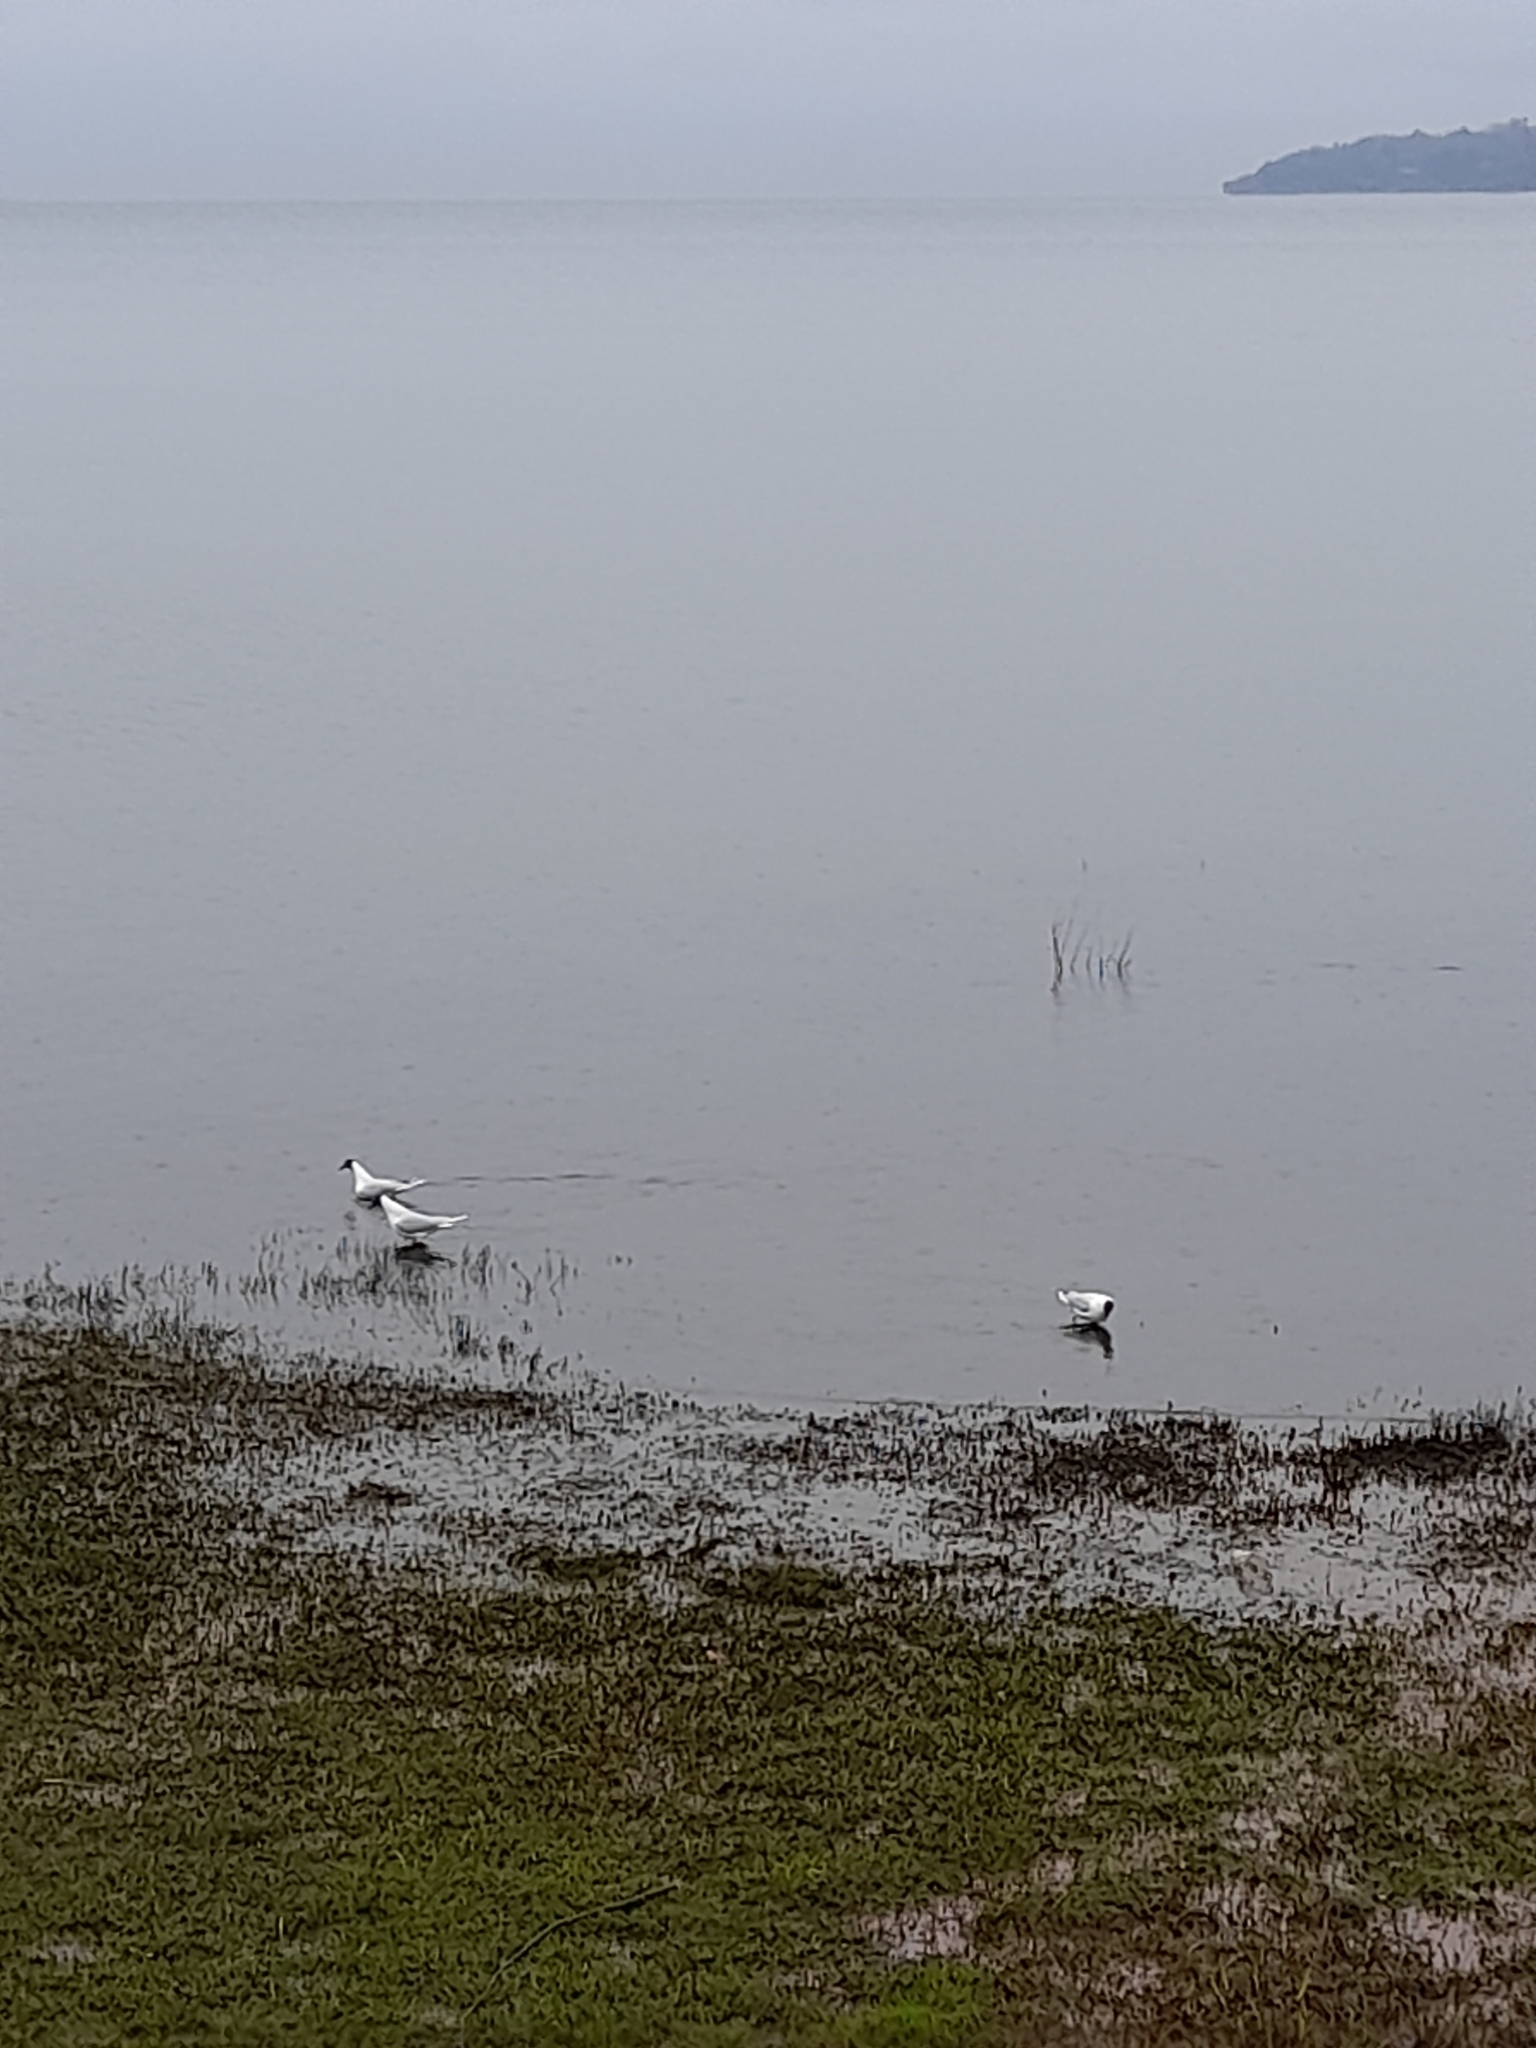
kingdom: Animalia
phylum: Chordata
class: Aves
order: Charadriiformes
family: Laridae
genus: Chroicocephalus
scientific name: Chroicocephalus maculipennis
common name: Brown-hooded gull
